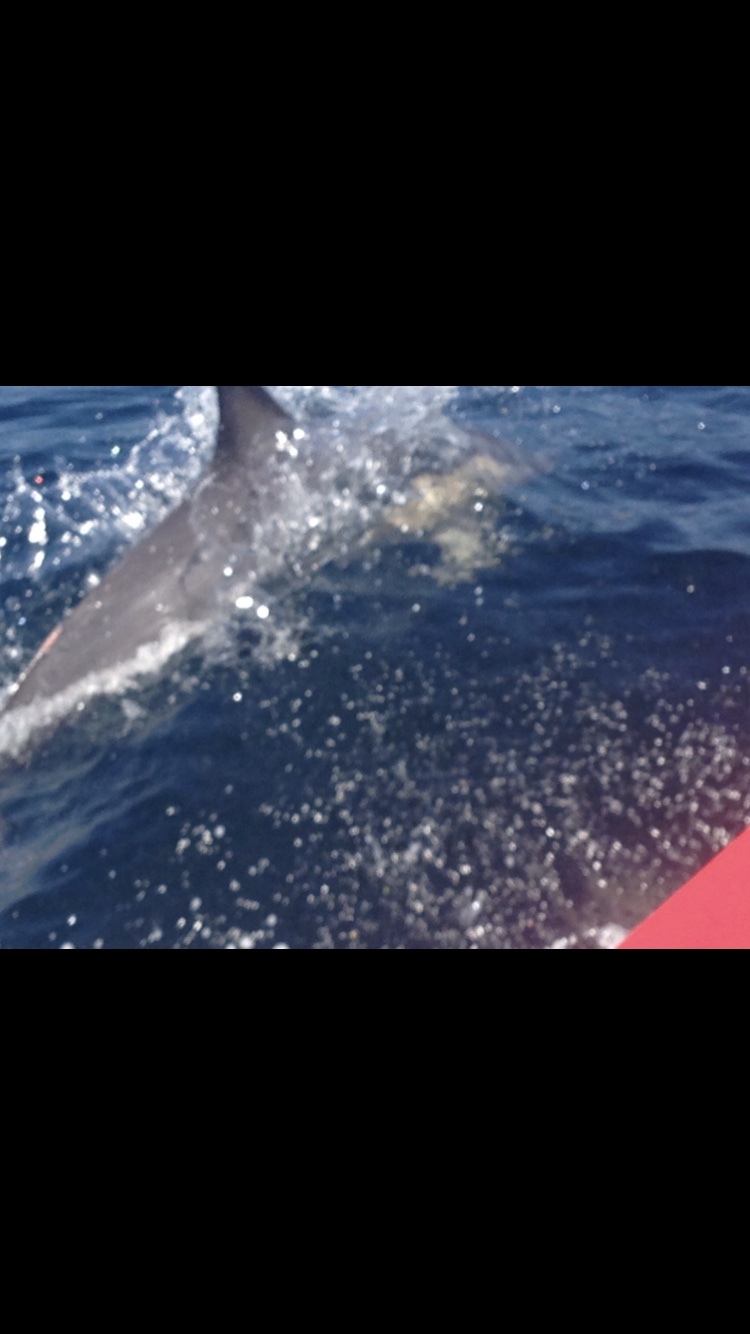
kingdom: Animalia
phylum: Chordata
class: Mammalia
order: Cetacea
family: Delphinidae
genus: Delphinus
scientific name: Delphinus delphis
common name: Common dolphin
